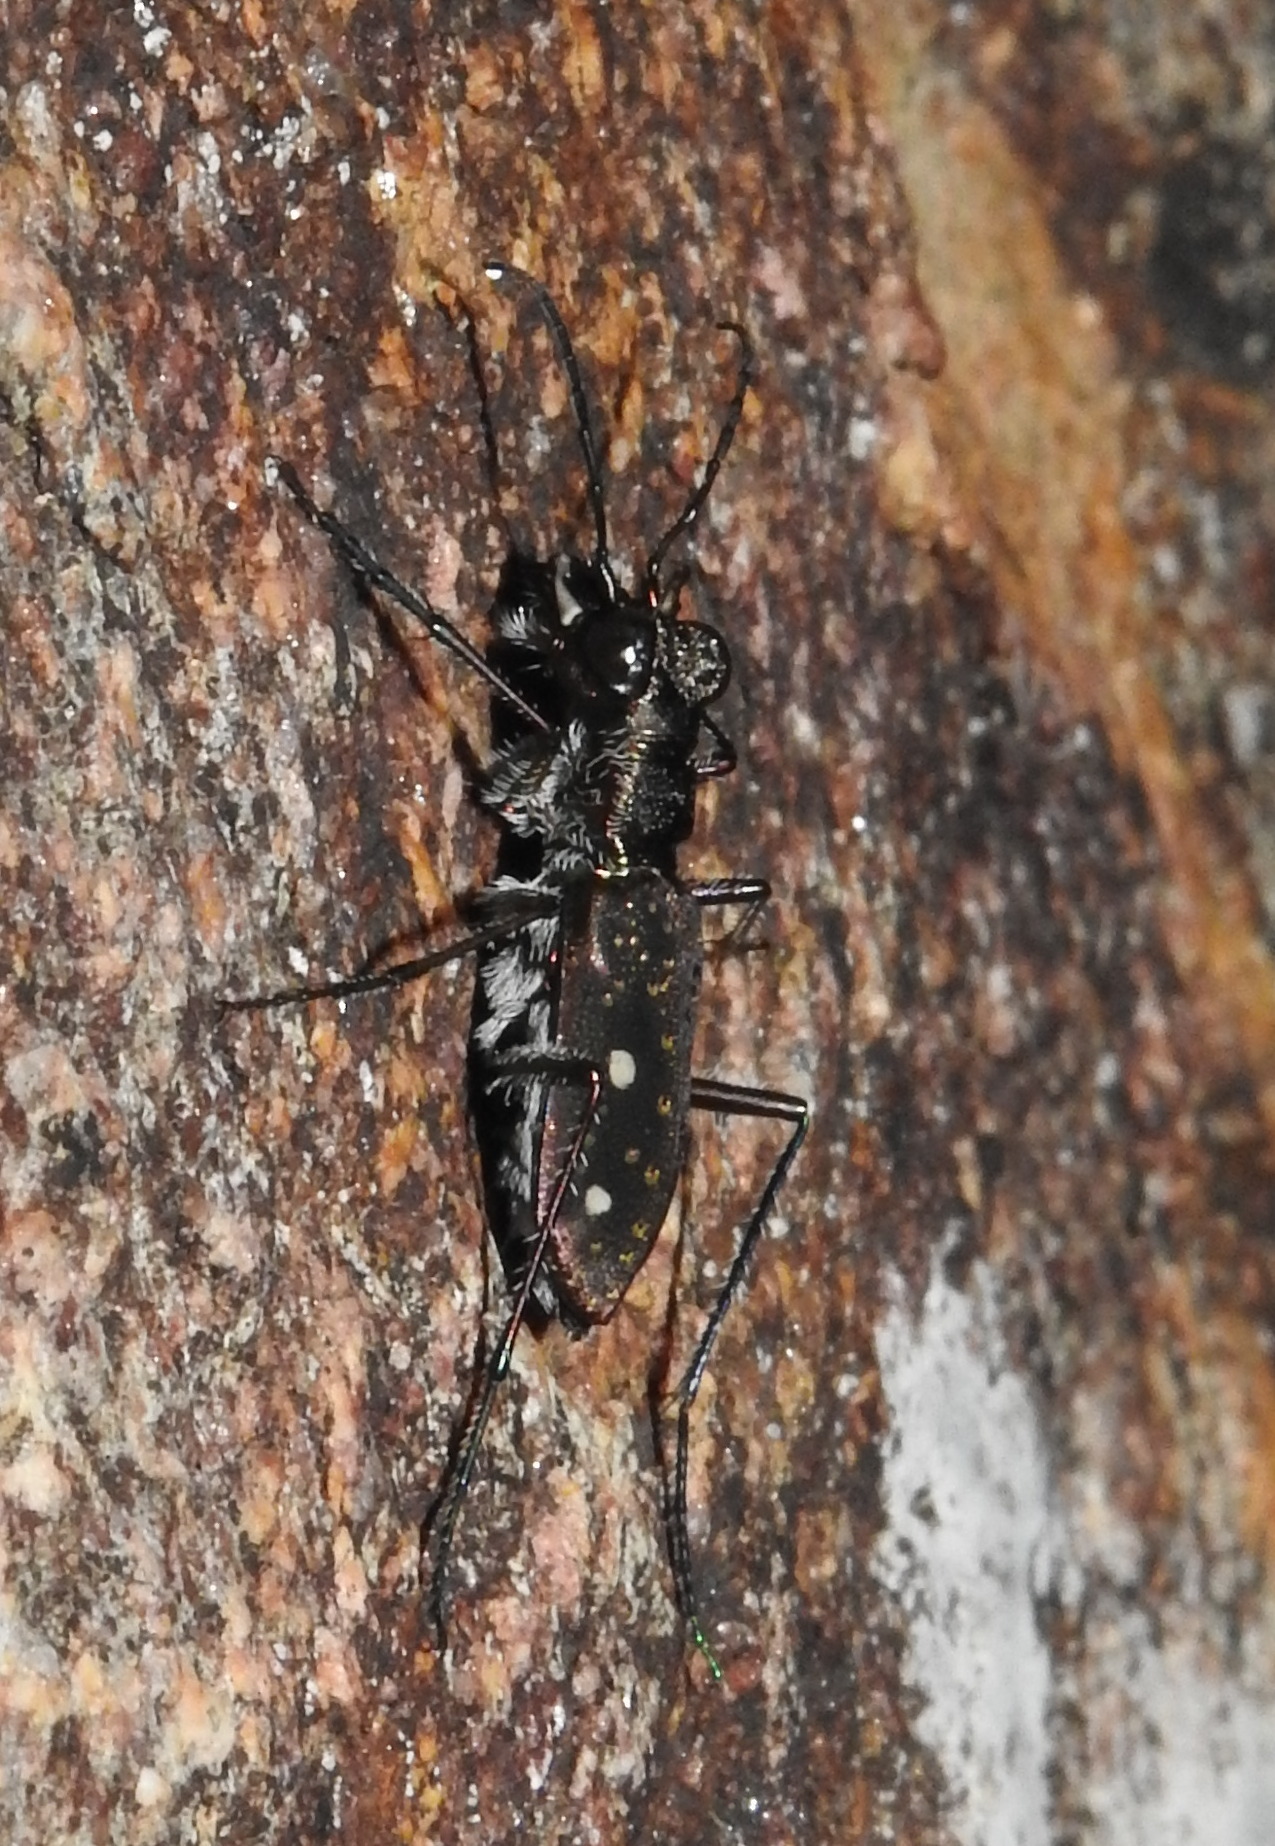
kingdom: Animalia
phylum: Arthropoda
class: Insecta
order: Coleoptera
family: Carabidae
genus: Jansenia
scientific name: Jansenia tetragrammica
